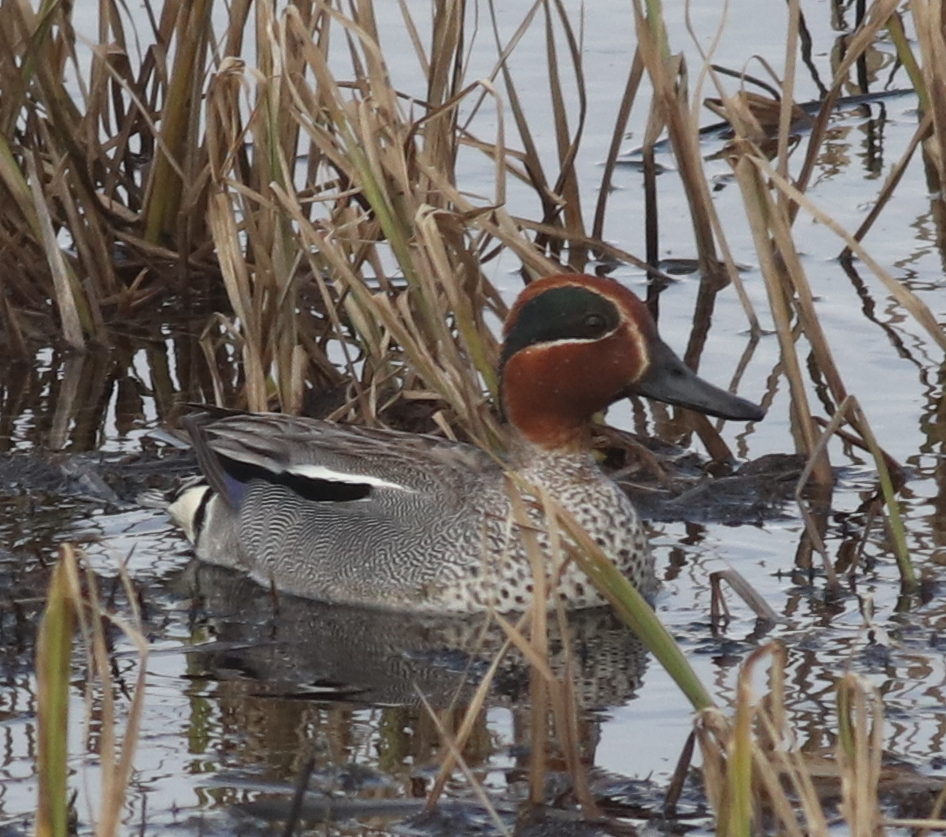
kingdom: Animalia
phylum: Chordata
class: Aves
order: Anseriformes
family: Anatidae
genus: Anas
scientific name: Anas crecca
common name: Eurasian teal
